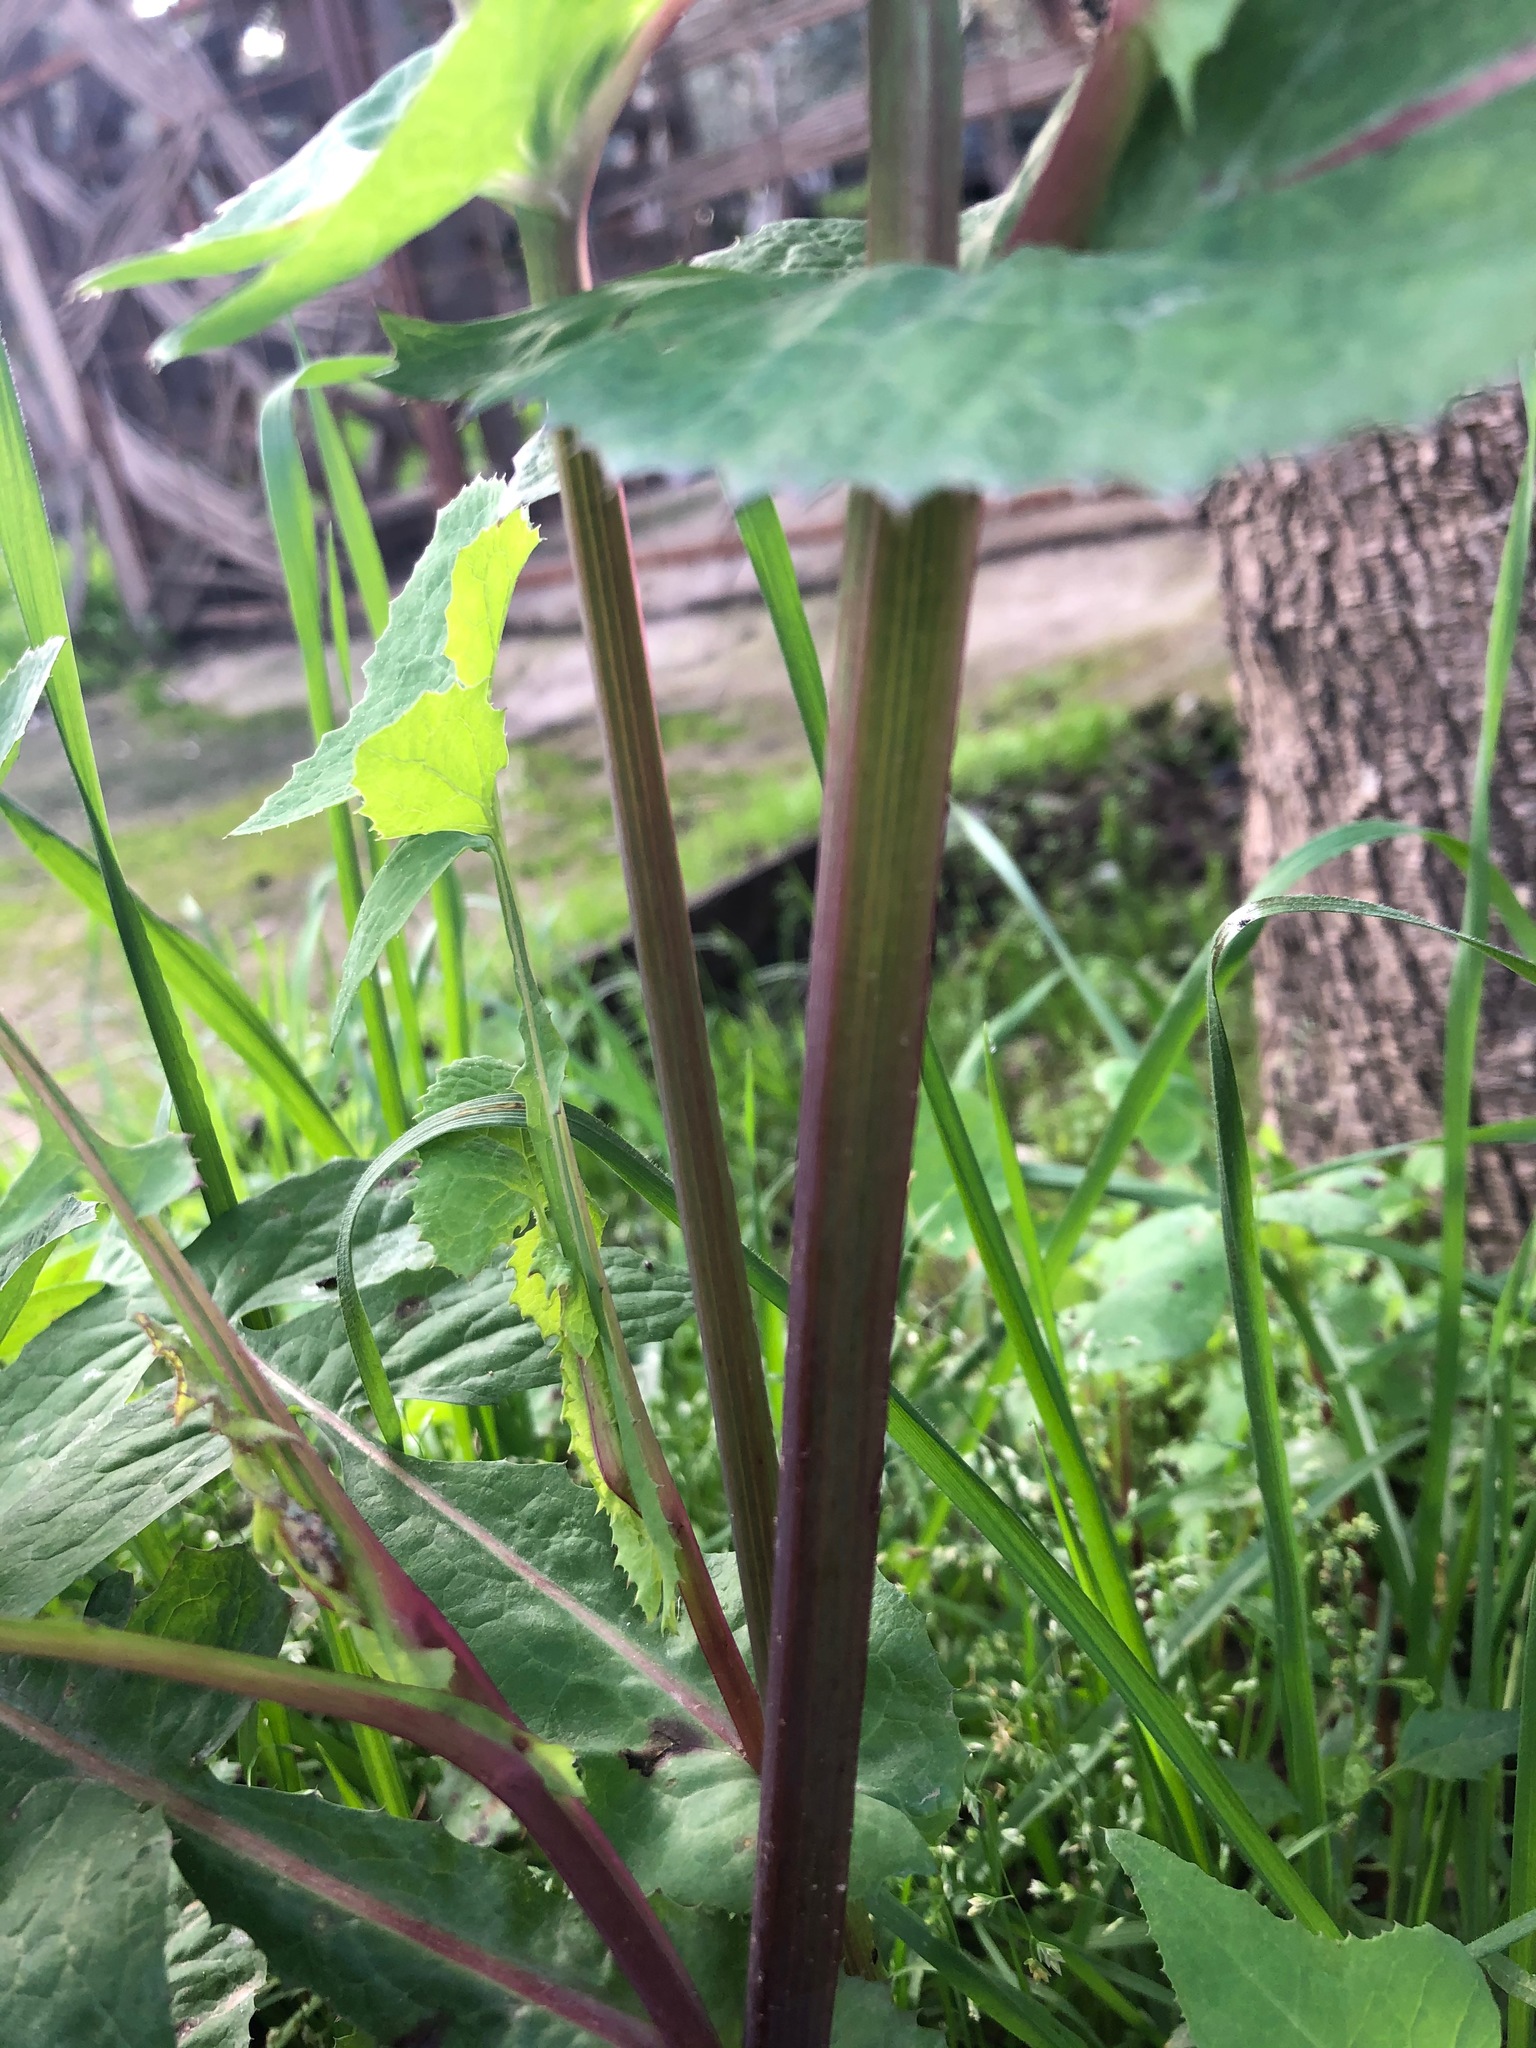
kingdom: Plantae
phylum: Tracheophyta
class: Magnoliopsida
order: Asterales
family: Asteraceae
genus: Sonchus
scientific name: Sonchus oleraceus
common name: Common sowthistle
